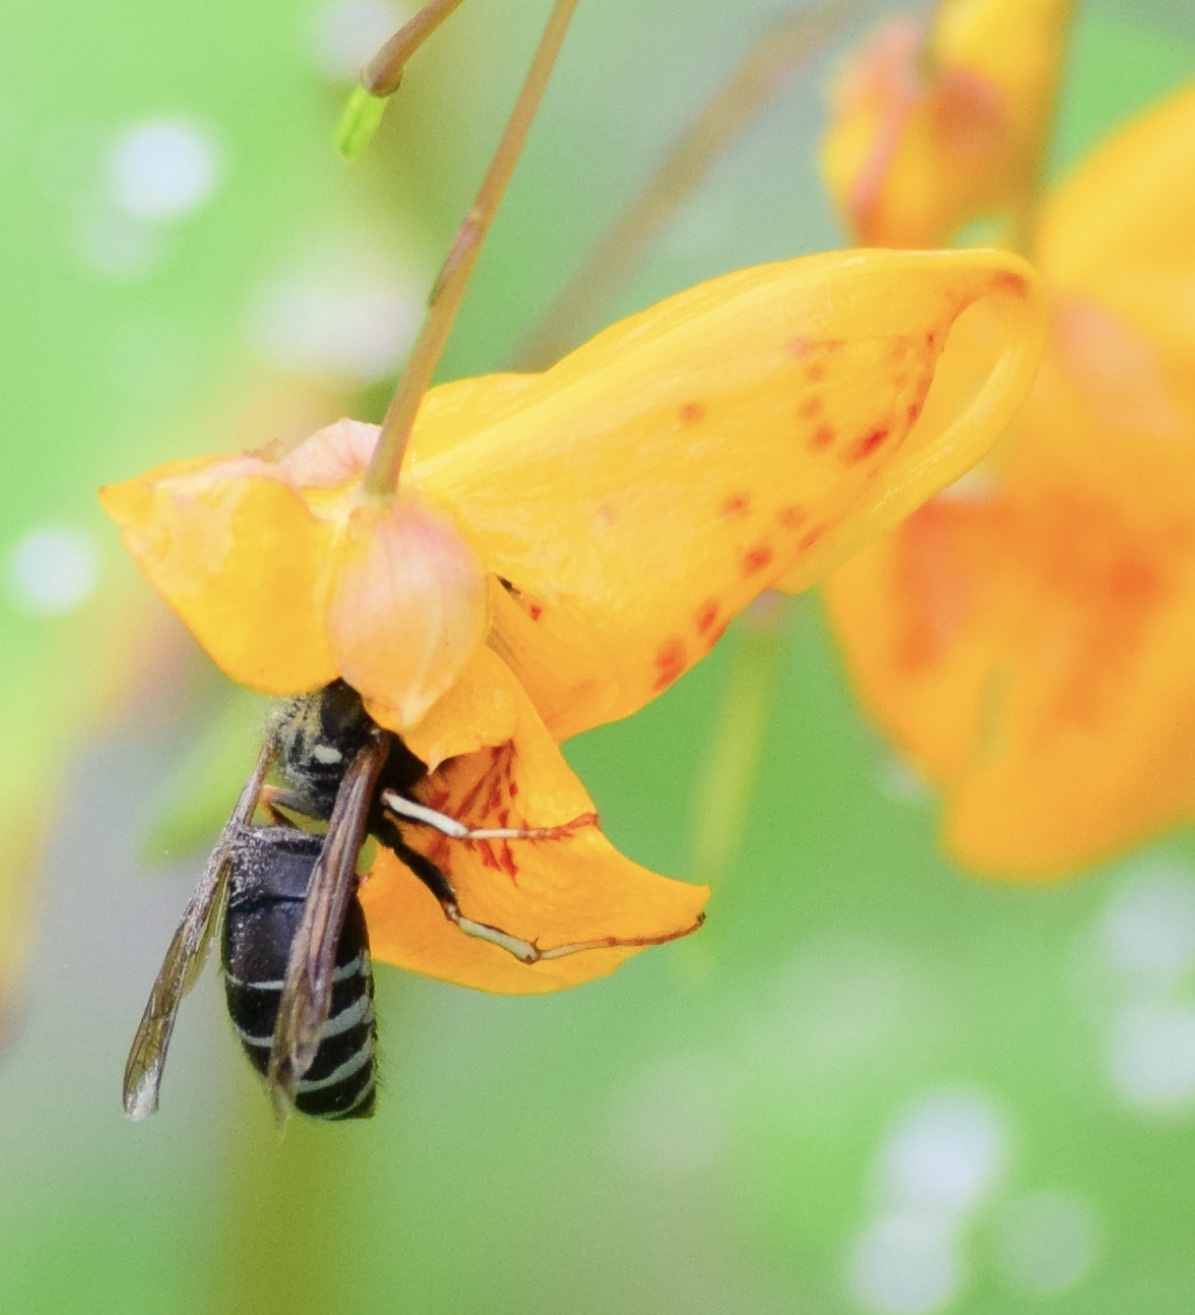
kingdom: Animalia
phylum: Arthropoda
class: Insecta
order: Hymenoptera
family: Vespidae
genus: Vespula
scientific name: Vespula consobrina
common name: Blackjacket
